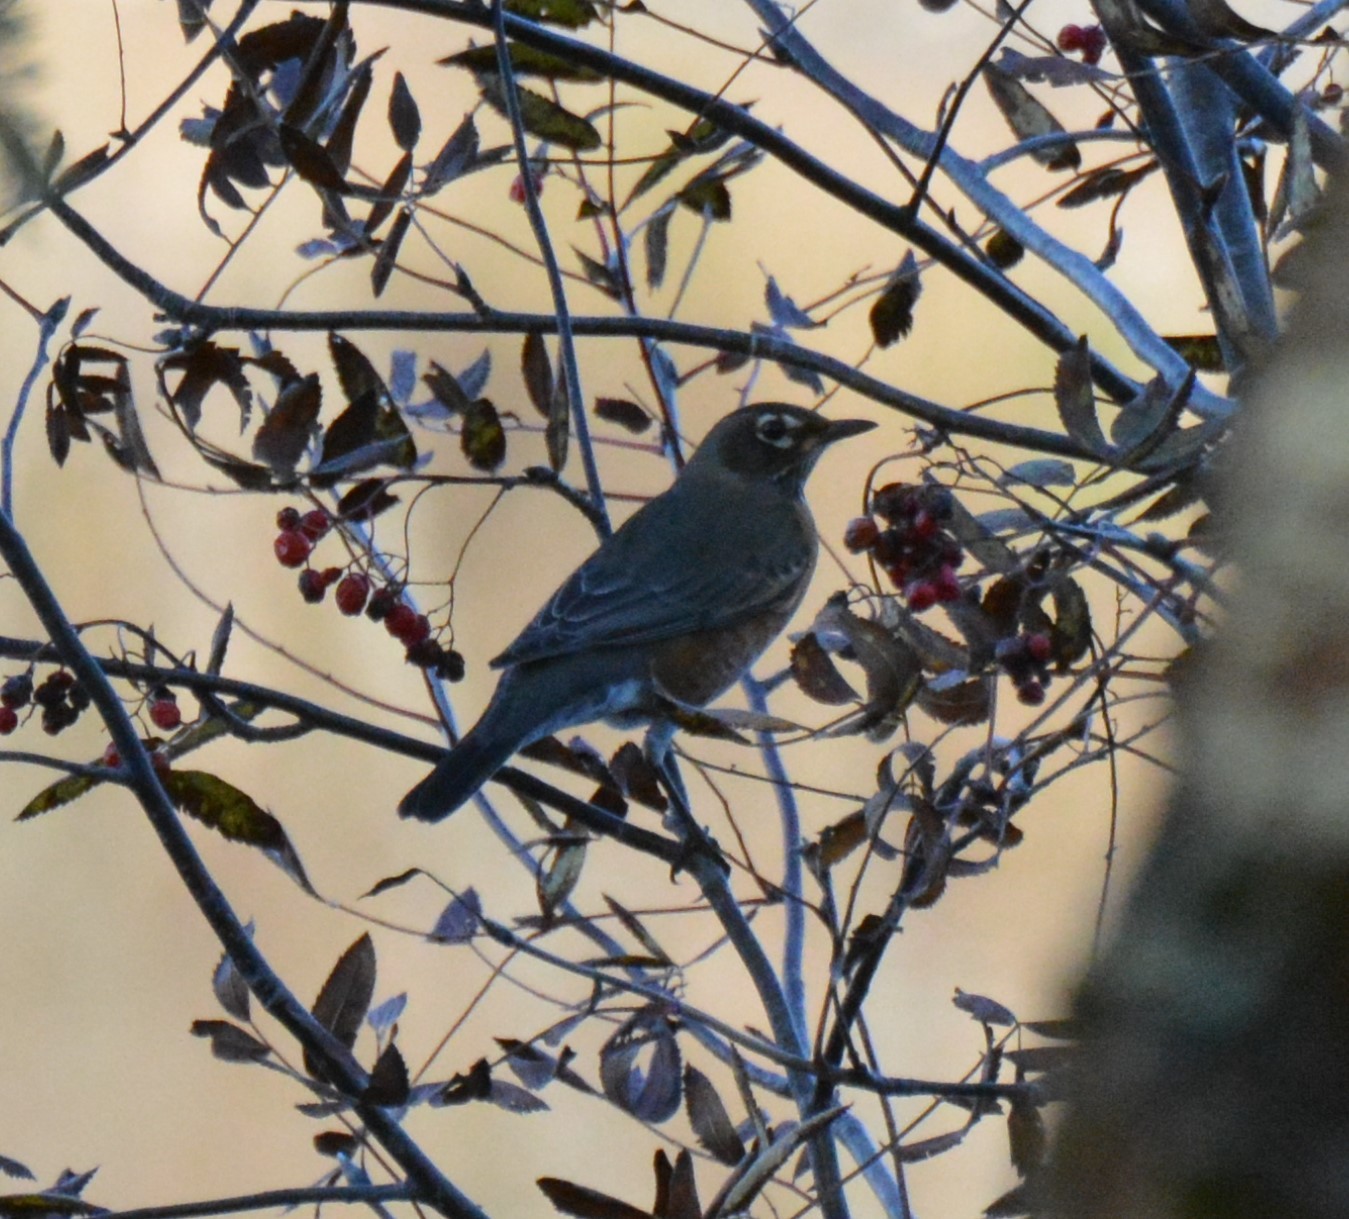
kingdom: Animalia
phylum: Chordata
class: Aves
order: Passeriformes
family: Turdidae
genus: Turdus
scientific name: Turdus migratorius
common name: American robin
